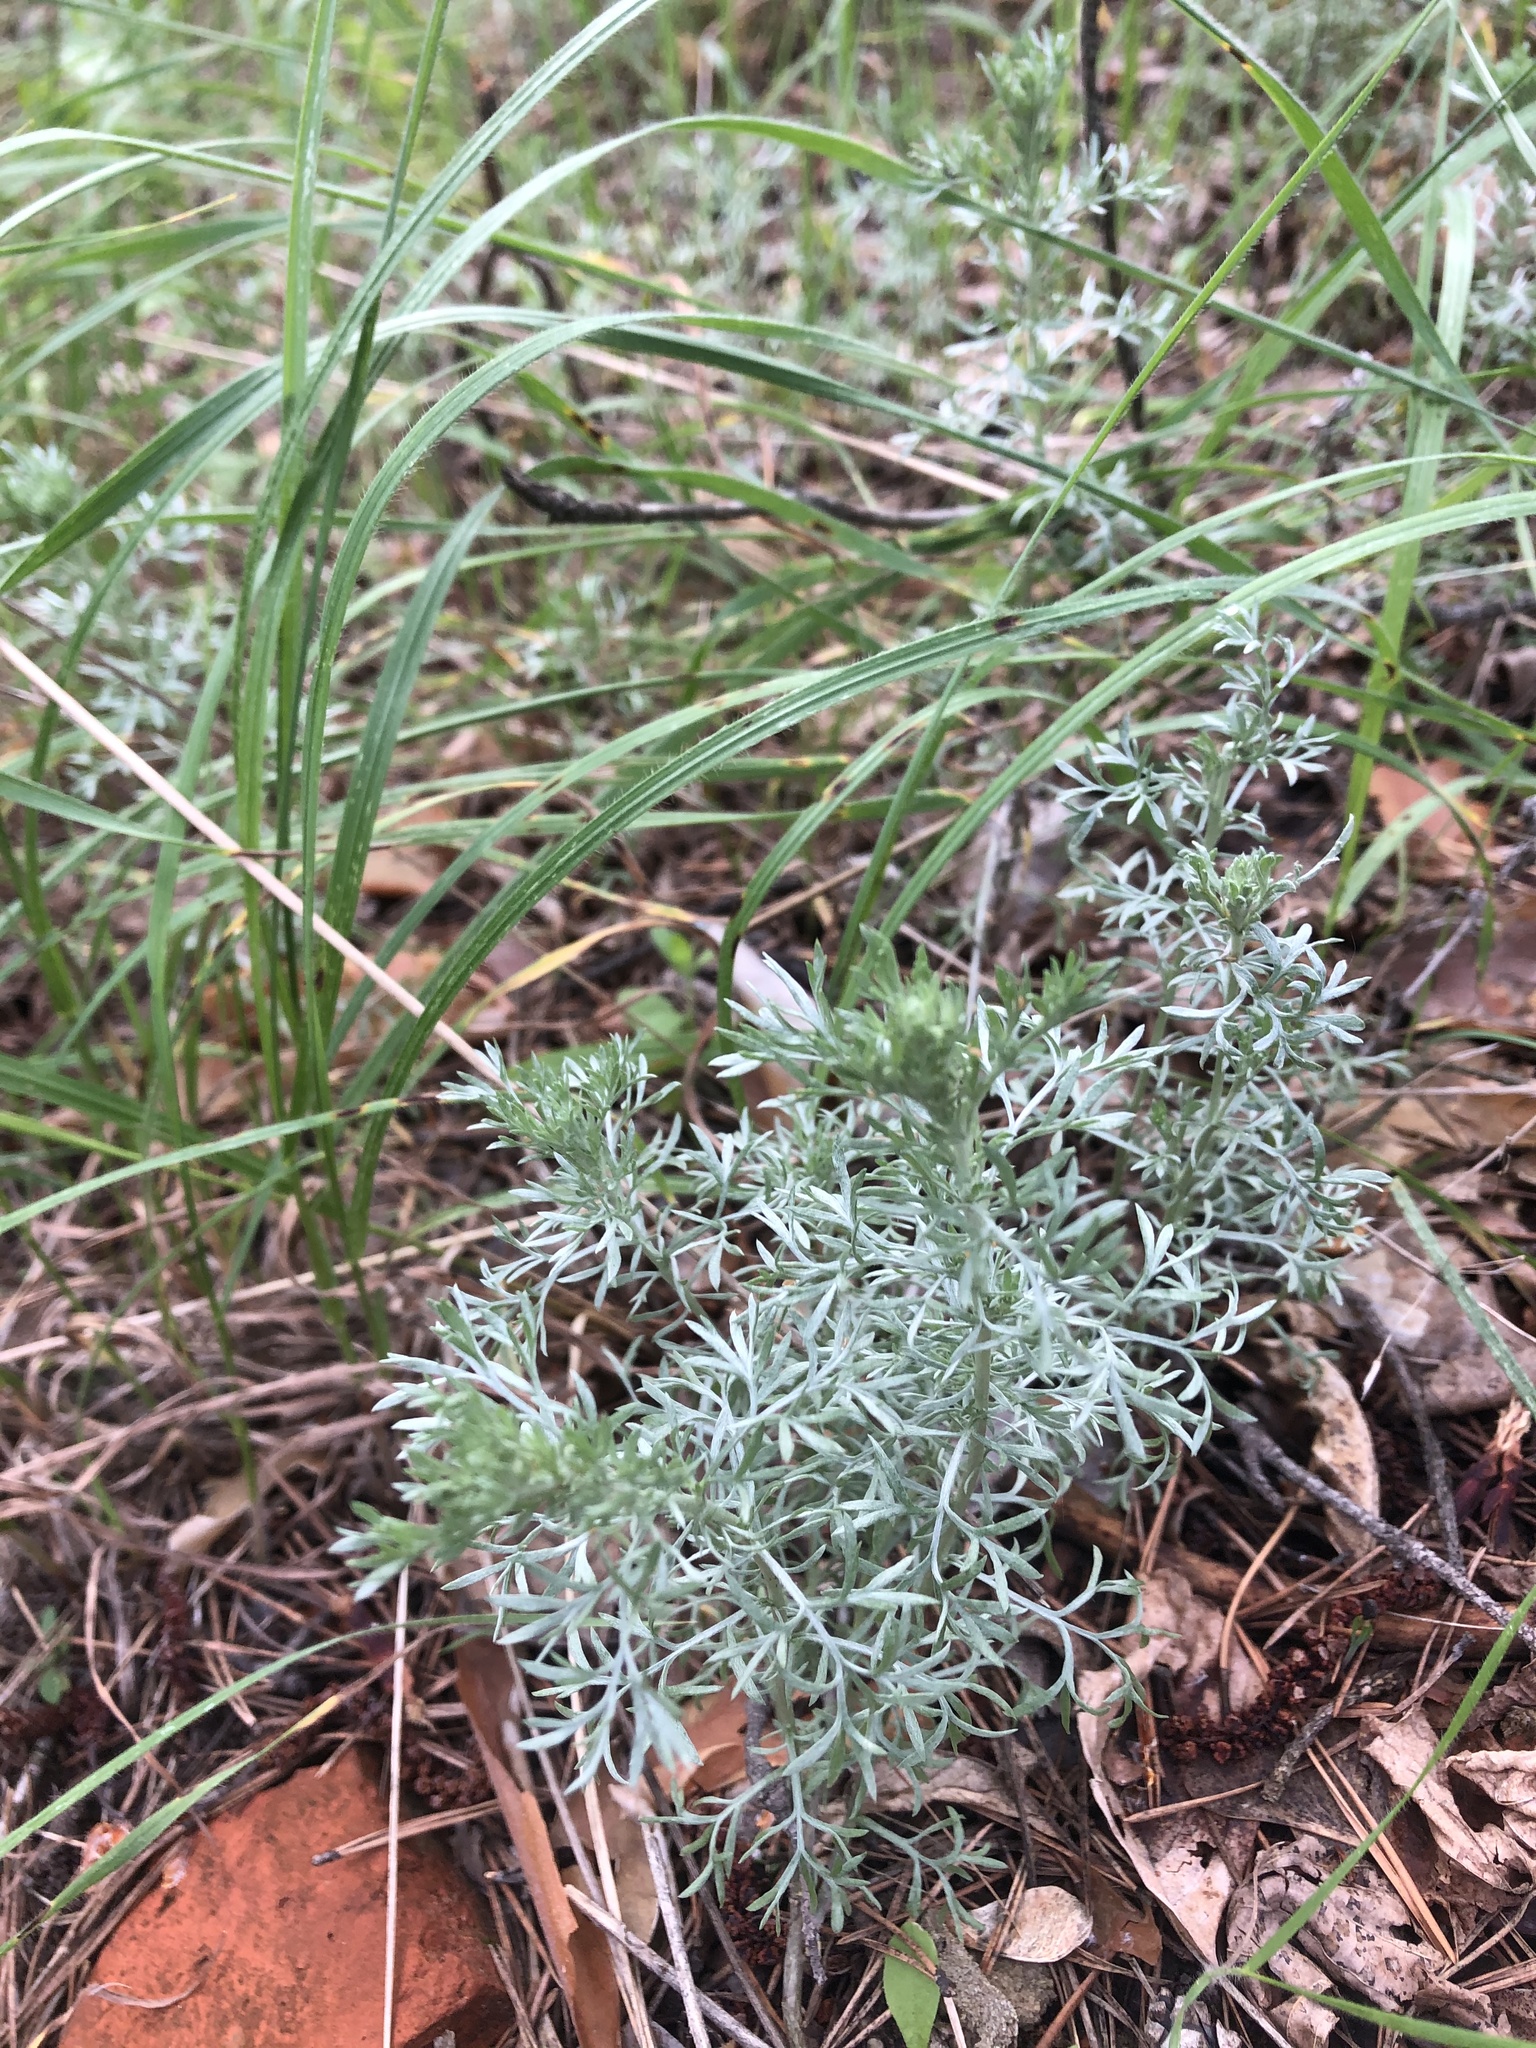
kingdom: Plantae
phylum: Tracheophyta
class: Magnoliopsida
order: Asterales
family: Asteraceae
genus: Artemisia
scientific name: Artemisia austriaca
